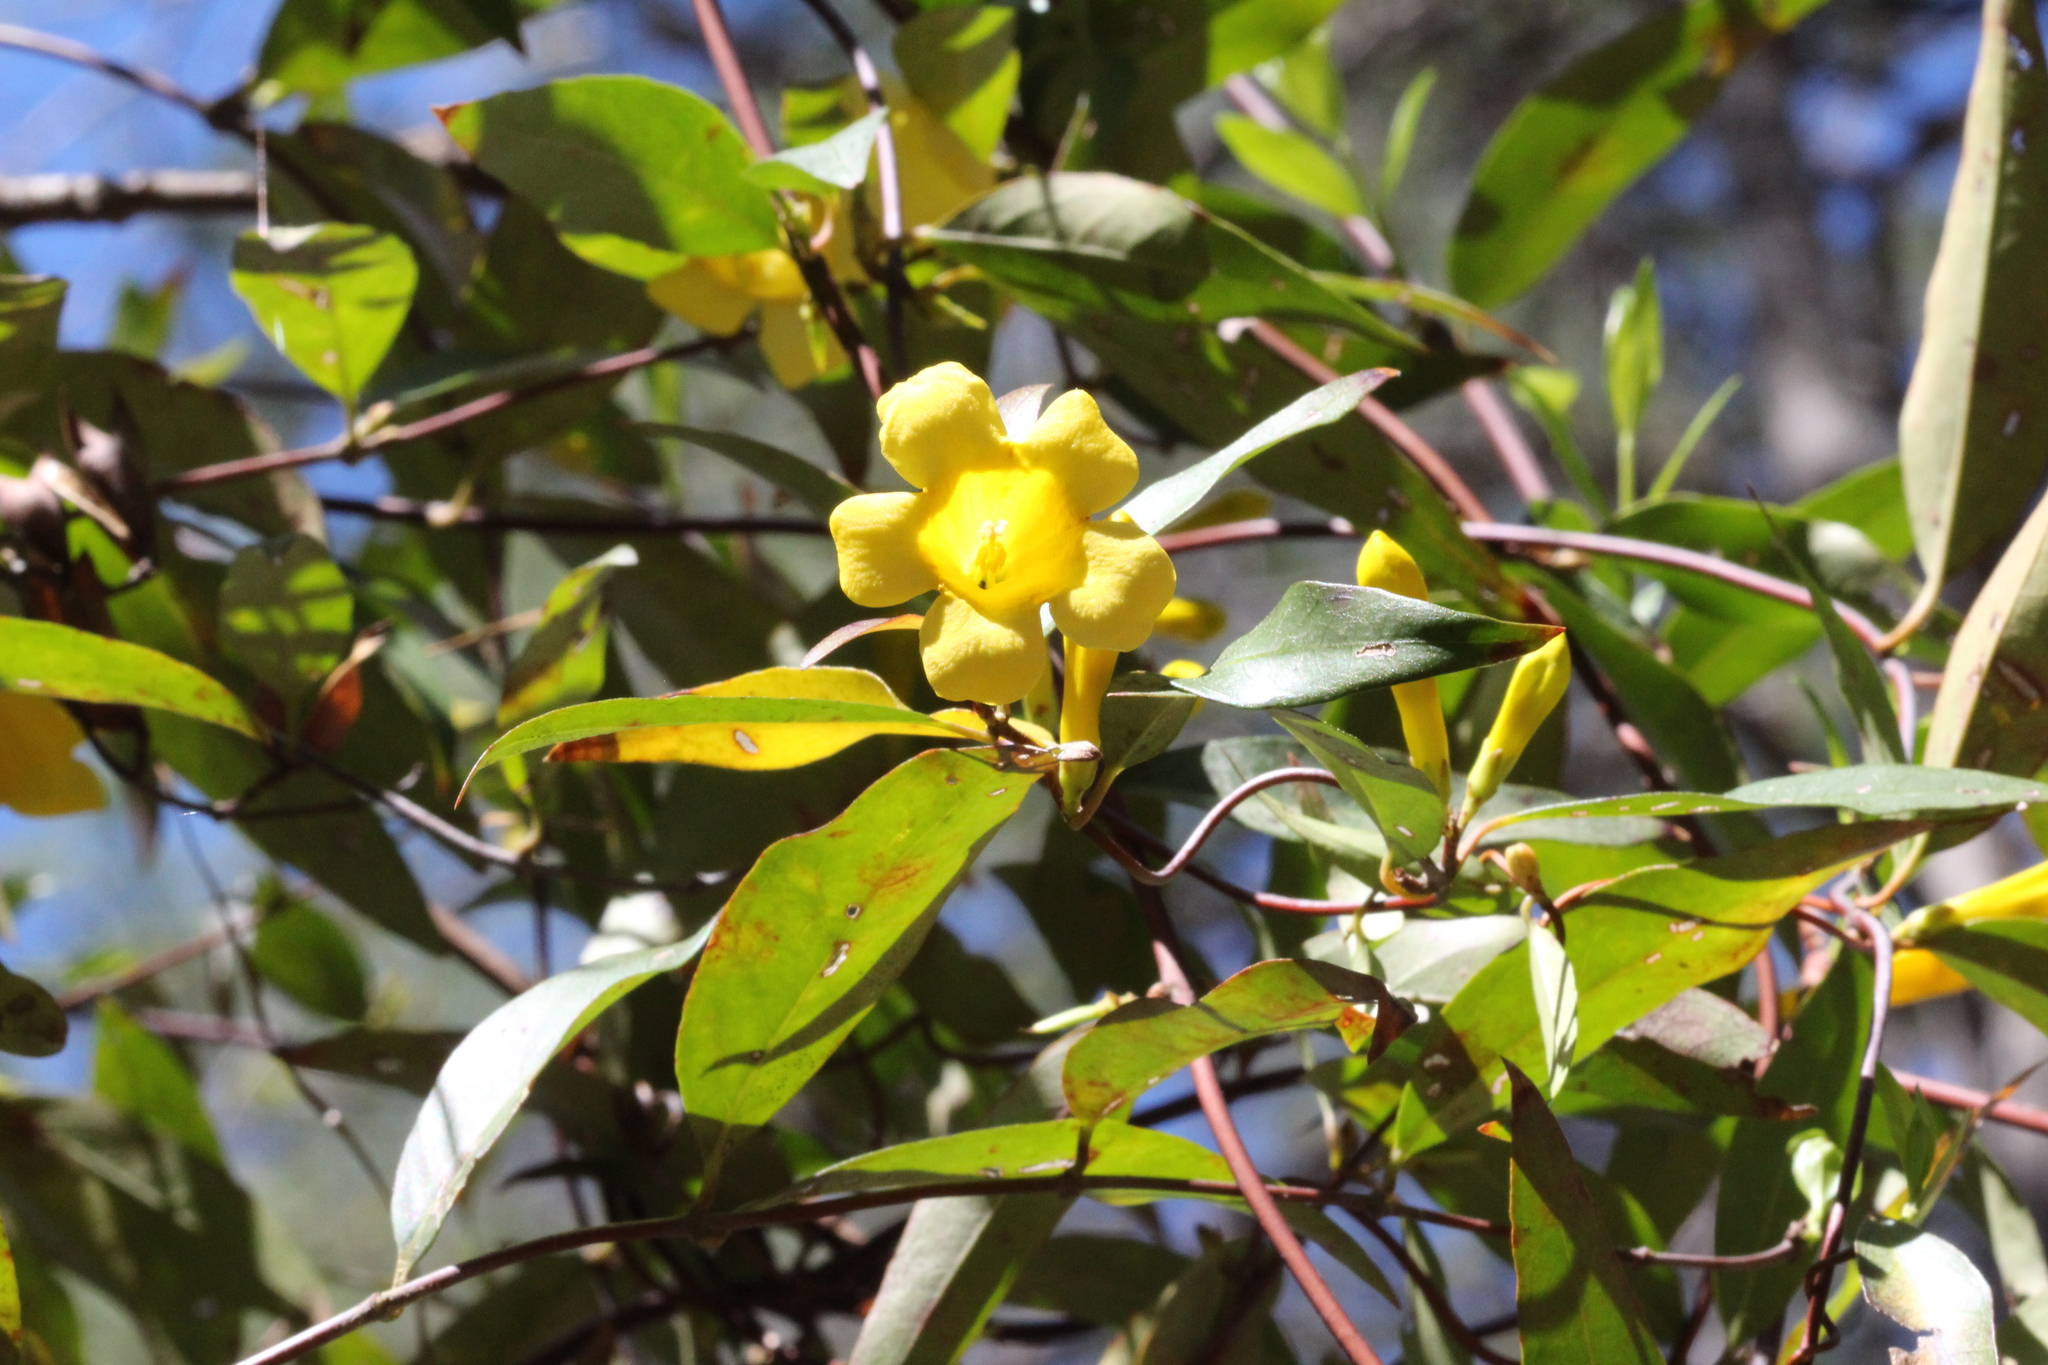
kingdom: Plantae
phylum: Tracheophyta
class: Magnoliopsida
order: Gentianales
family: Gelsemiaceae
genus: Gelsemium
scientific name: Gelsemium sempervirens
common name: Carolina-jasmine
